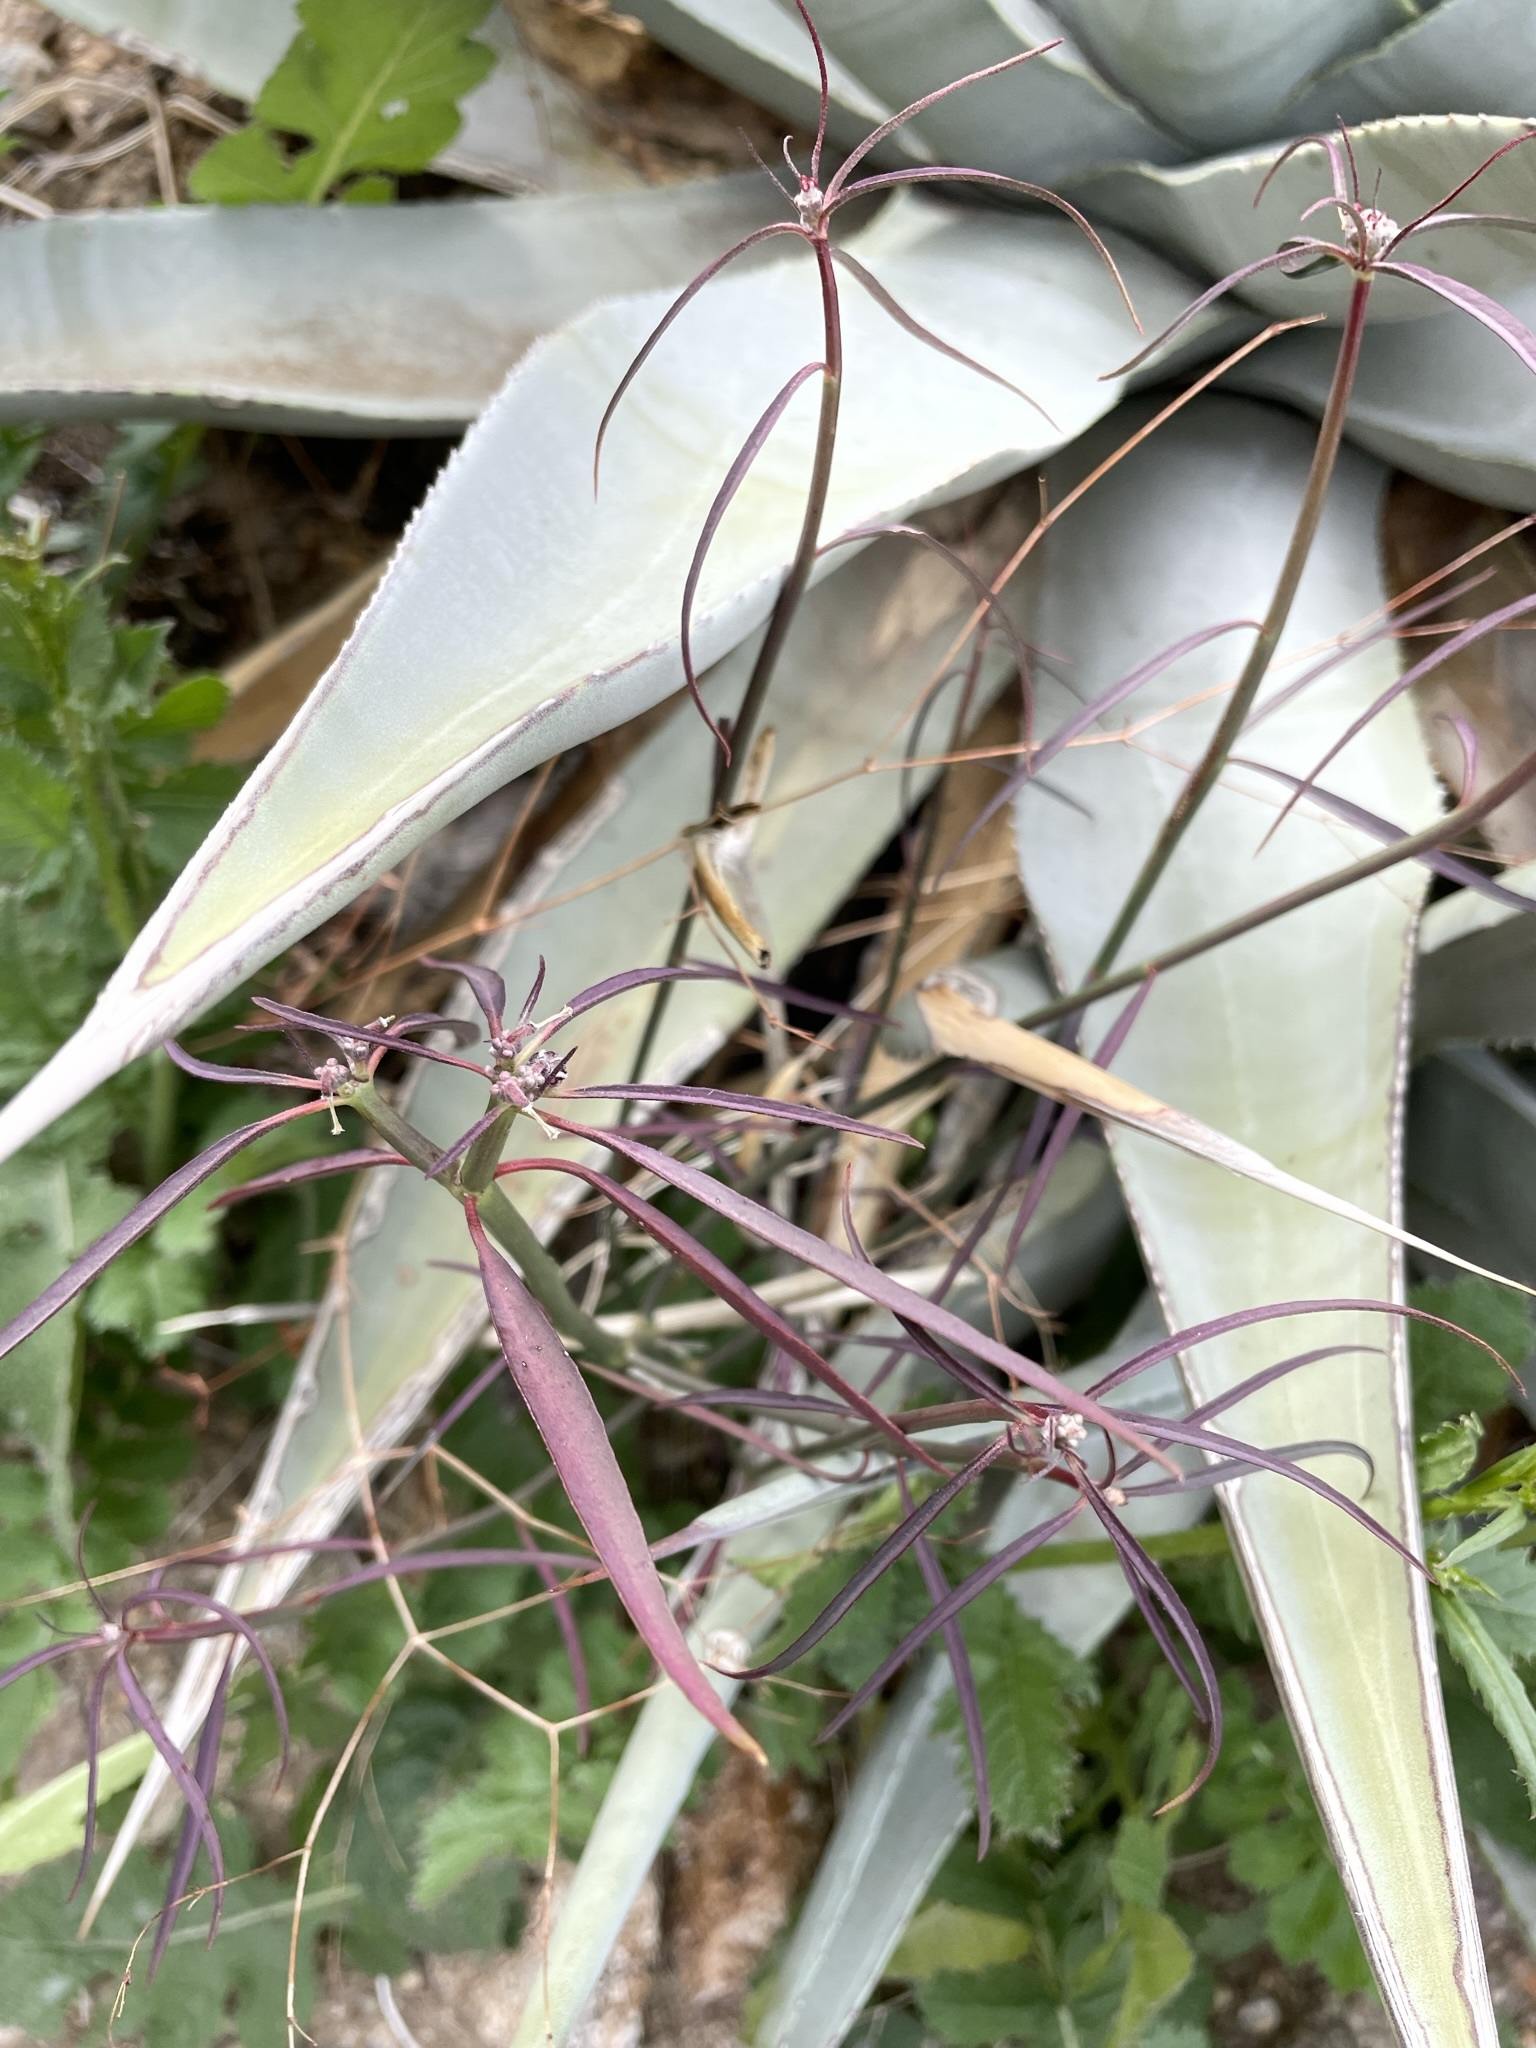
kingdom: Plantae
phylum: Tracheophyta
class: Magnoliopsida
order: Malpighiales
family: Euphorbiaceae
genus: Euphorbia
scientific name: Euphorbia eriantha
